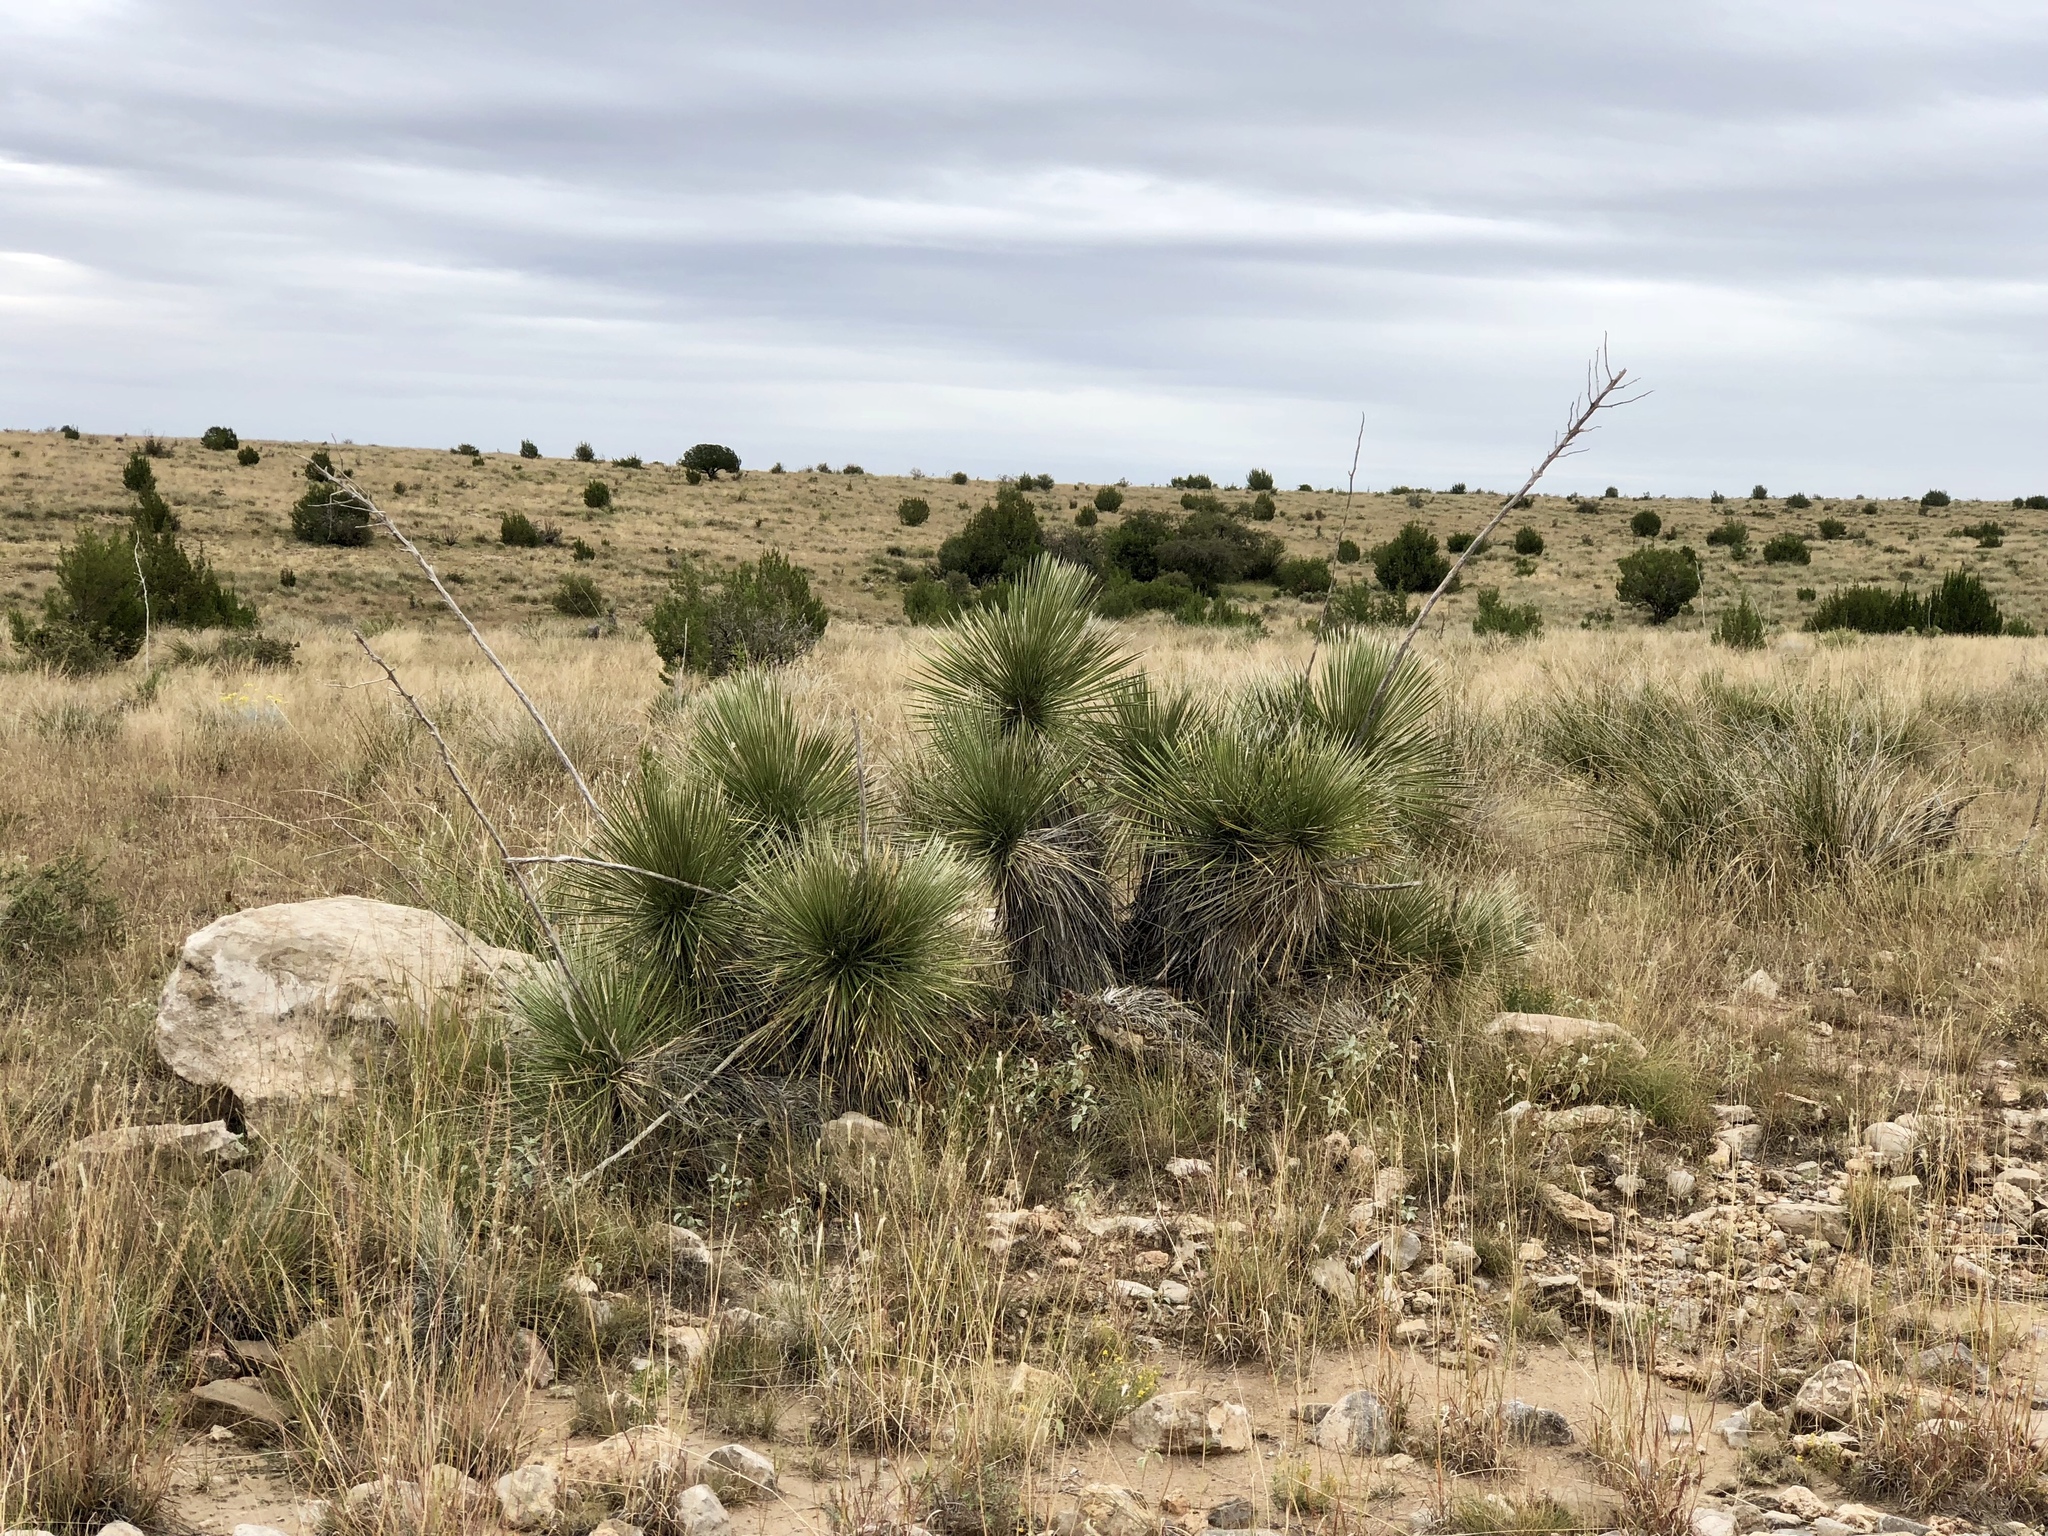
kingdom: Plantae
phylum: Tracheophyta
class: Liliopsida
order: Asparagales
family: Asparagaceae
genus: Yucca
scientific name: Yucca elata
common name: Palmella
